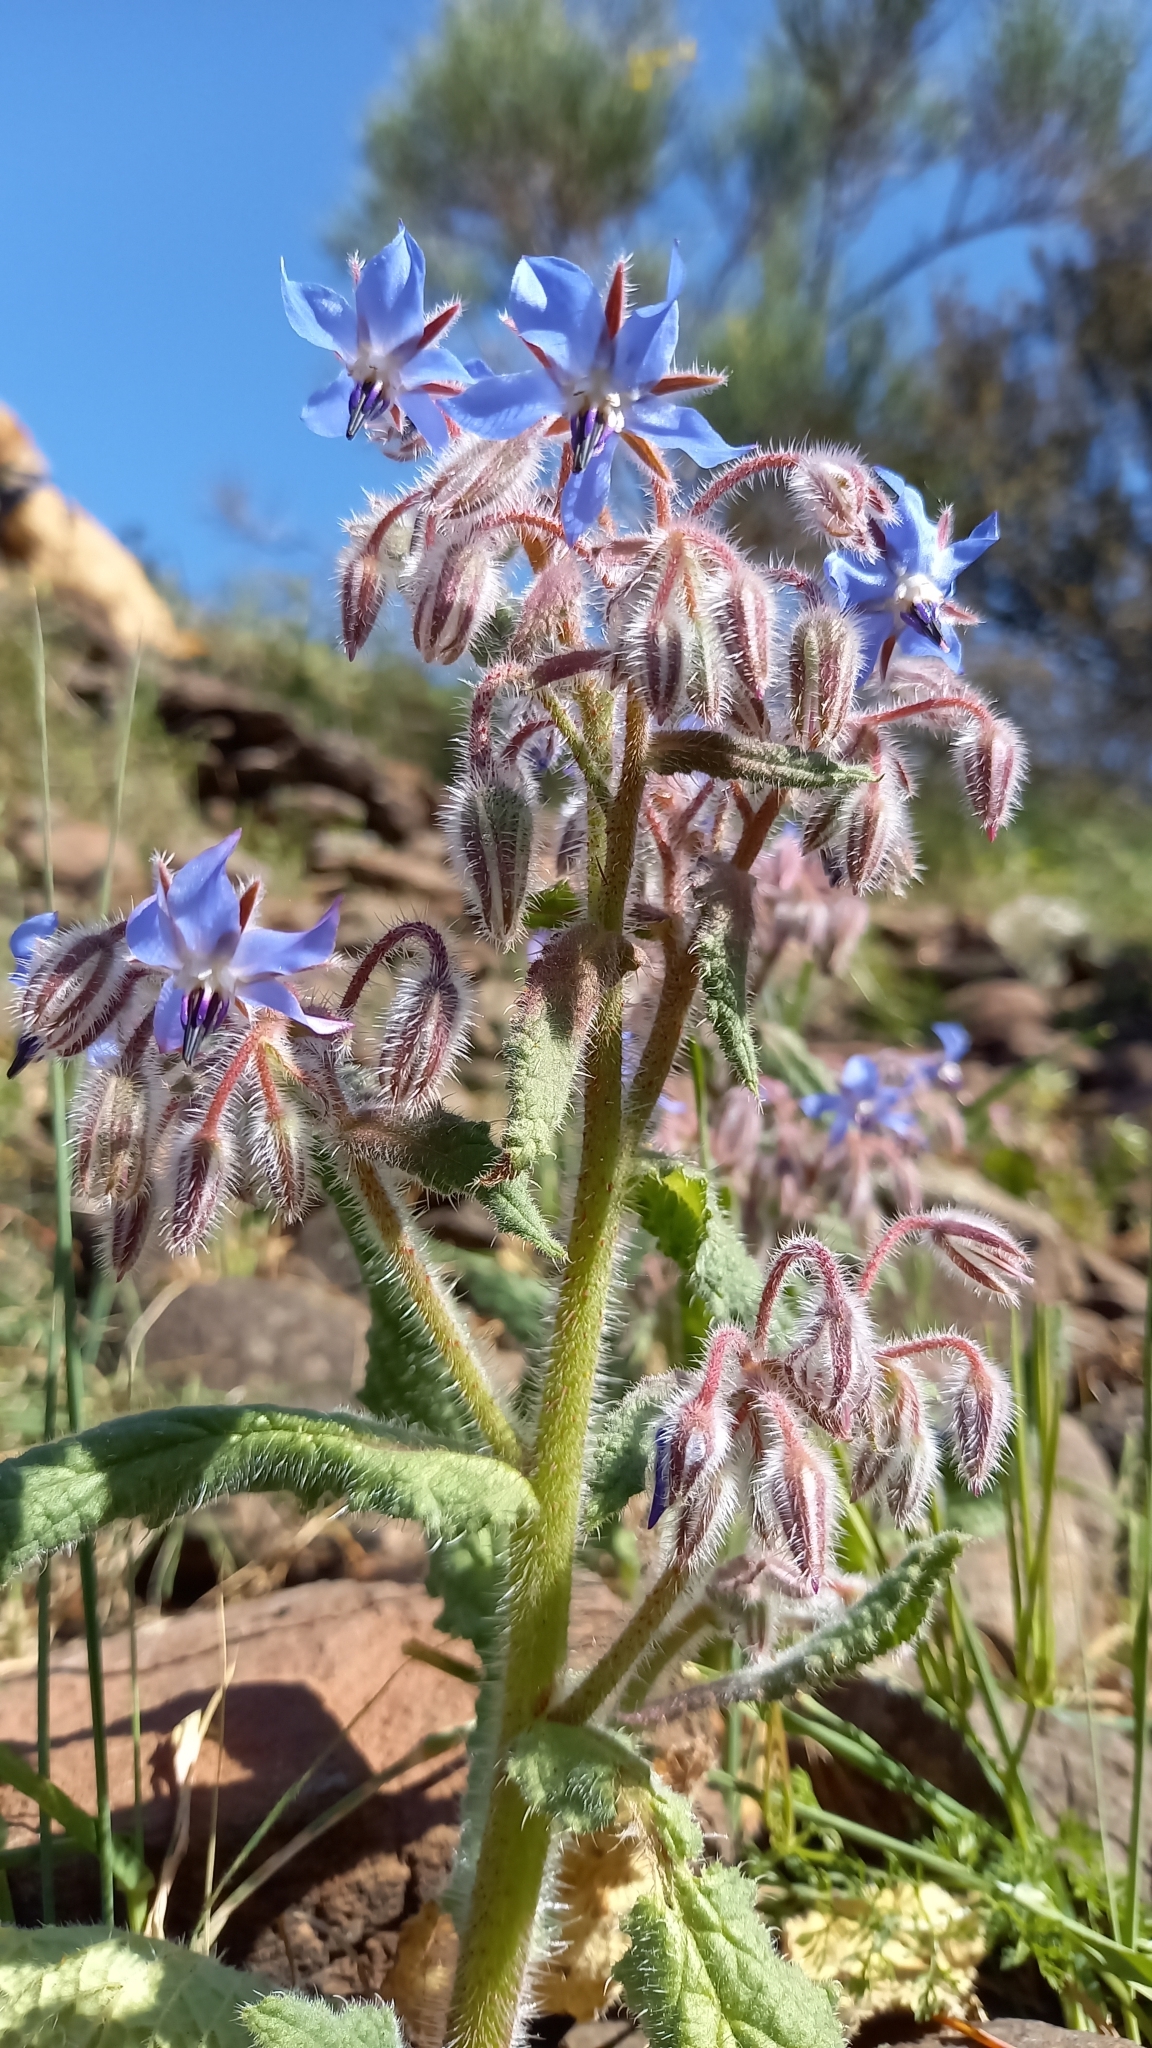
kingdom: Plantae
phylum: Tracheophyta
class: Magnoliopsida
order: Boraginales
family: Boraginaceae
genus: Borago
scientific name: Borago officinalis
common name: Borage
